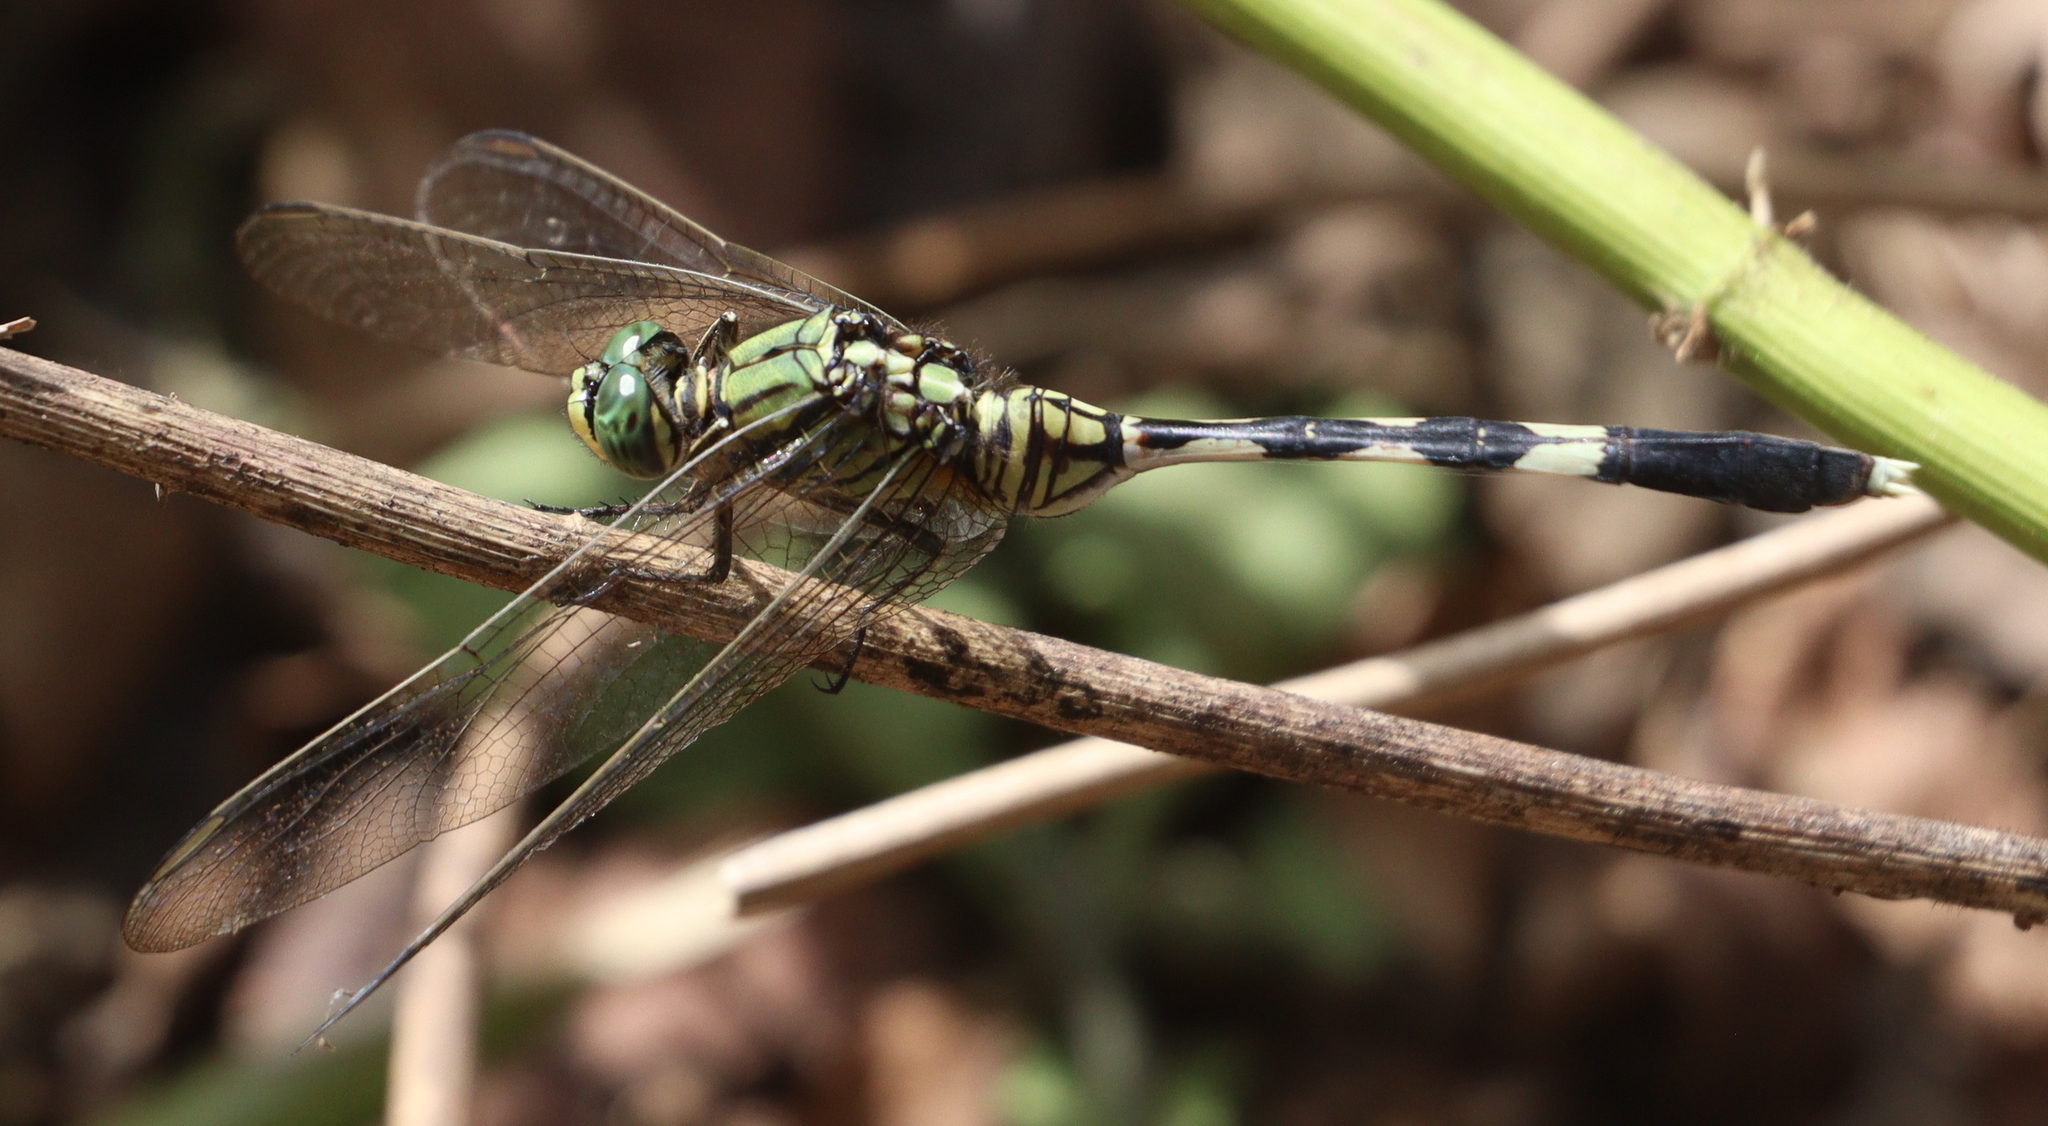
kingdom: Animalia
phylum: Arthropoda
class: Insecta
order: Odonata
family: Libellulidae
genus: Orthetrum
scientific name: Orthetrum sabina
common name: Slender skimmer
